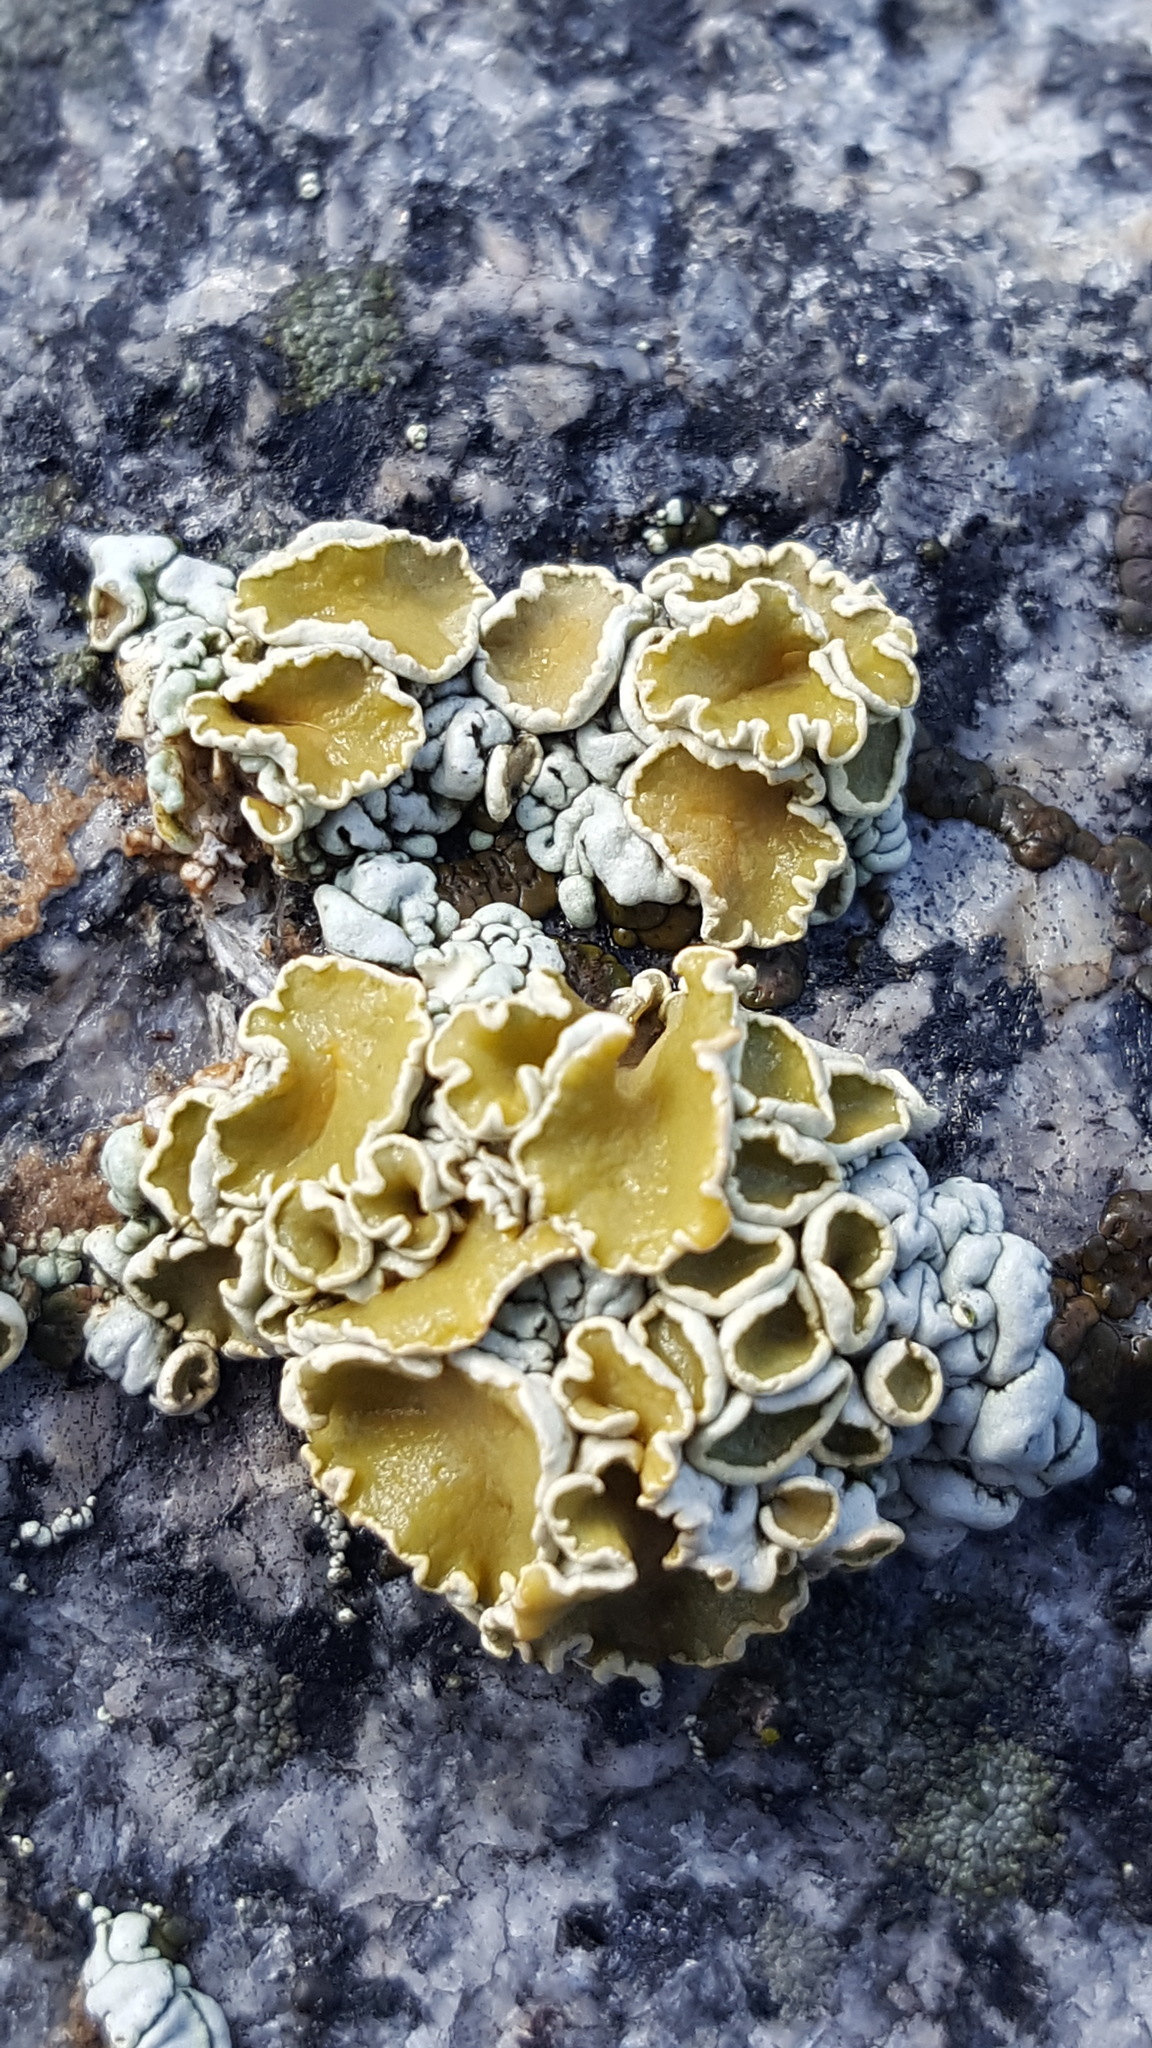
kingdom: Fungi
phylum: Ascomycota
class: Lecanoromycetes
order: Lecanorales
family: Lecanoraceae
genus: Omphalodina
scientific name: Omphalodina chrysoleuca
